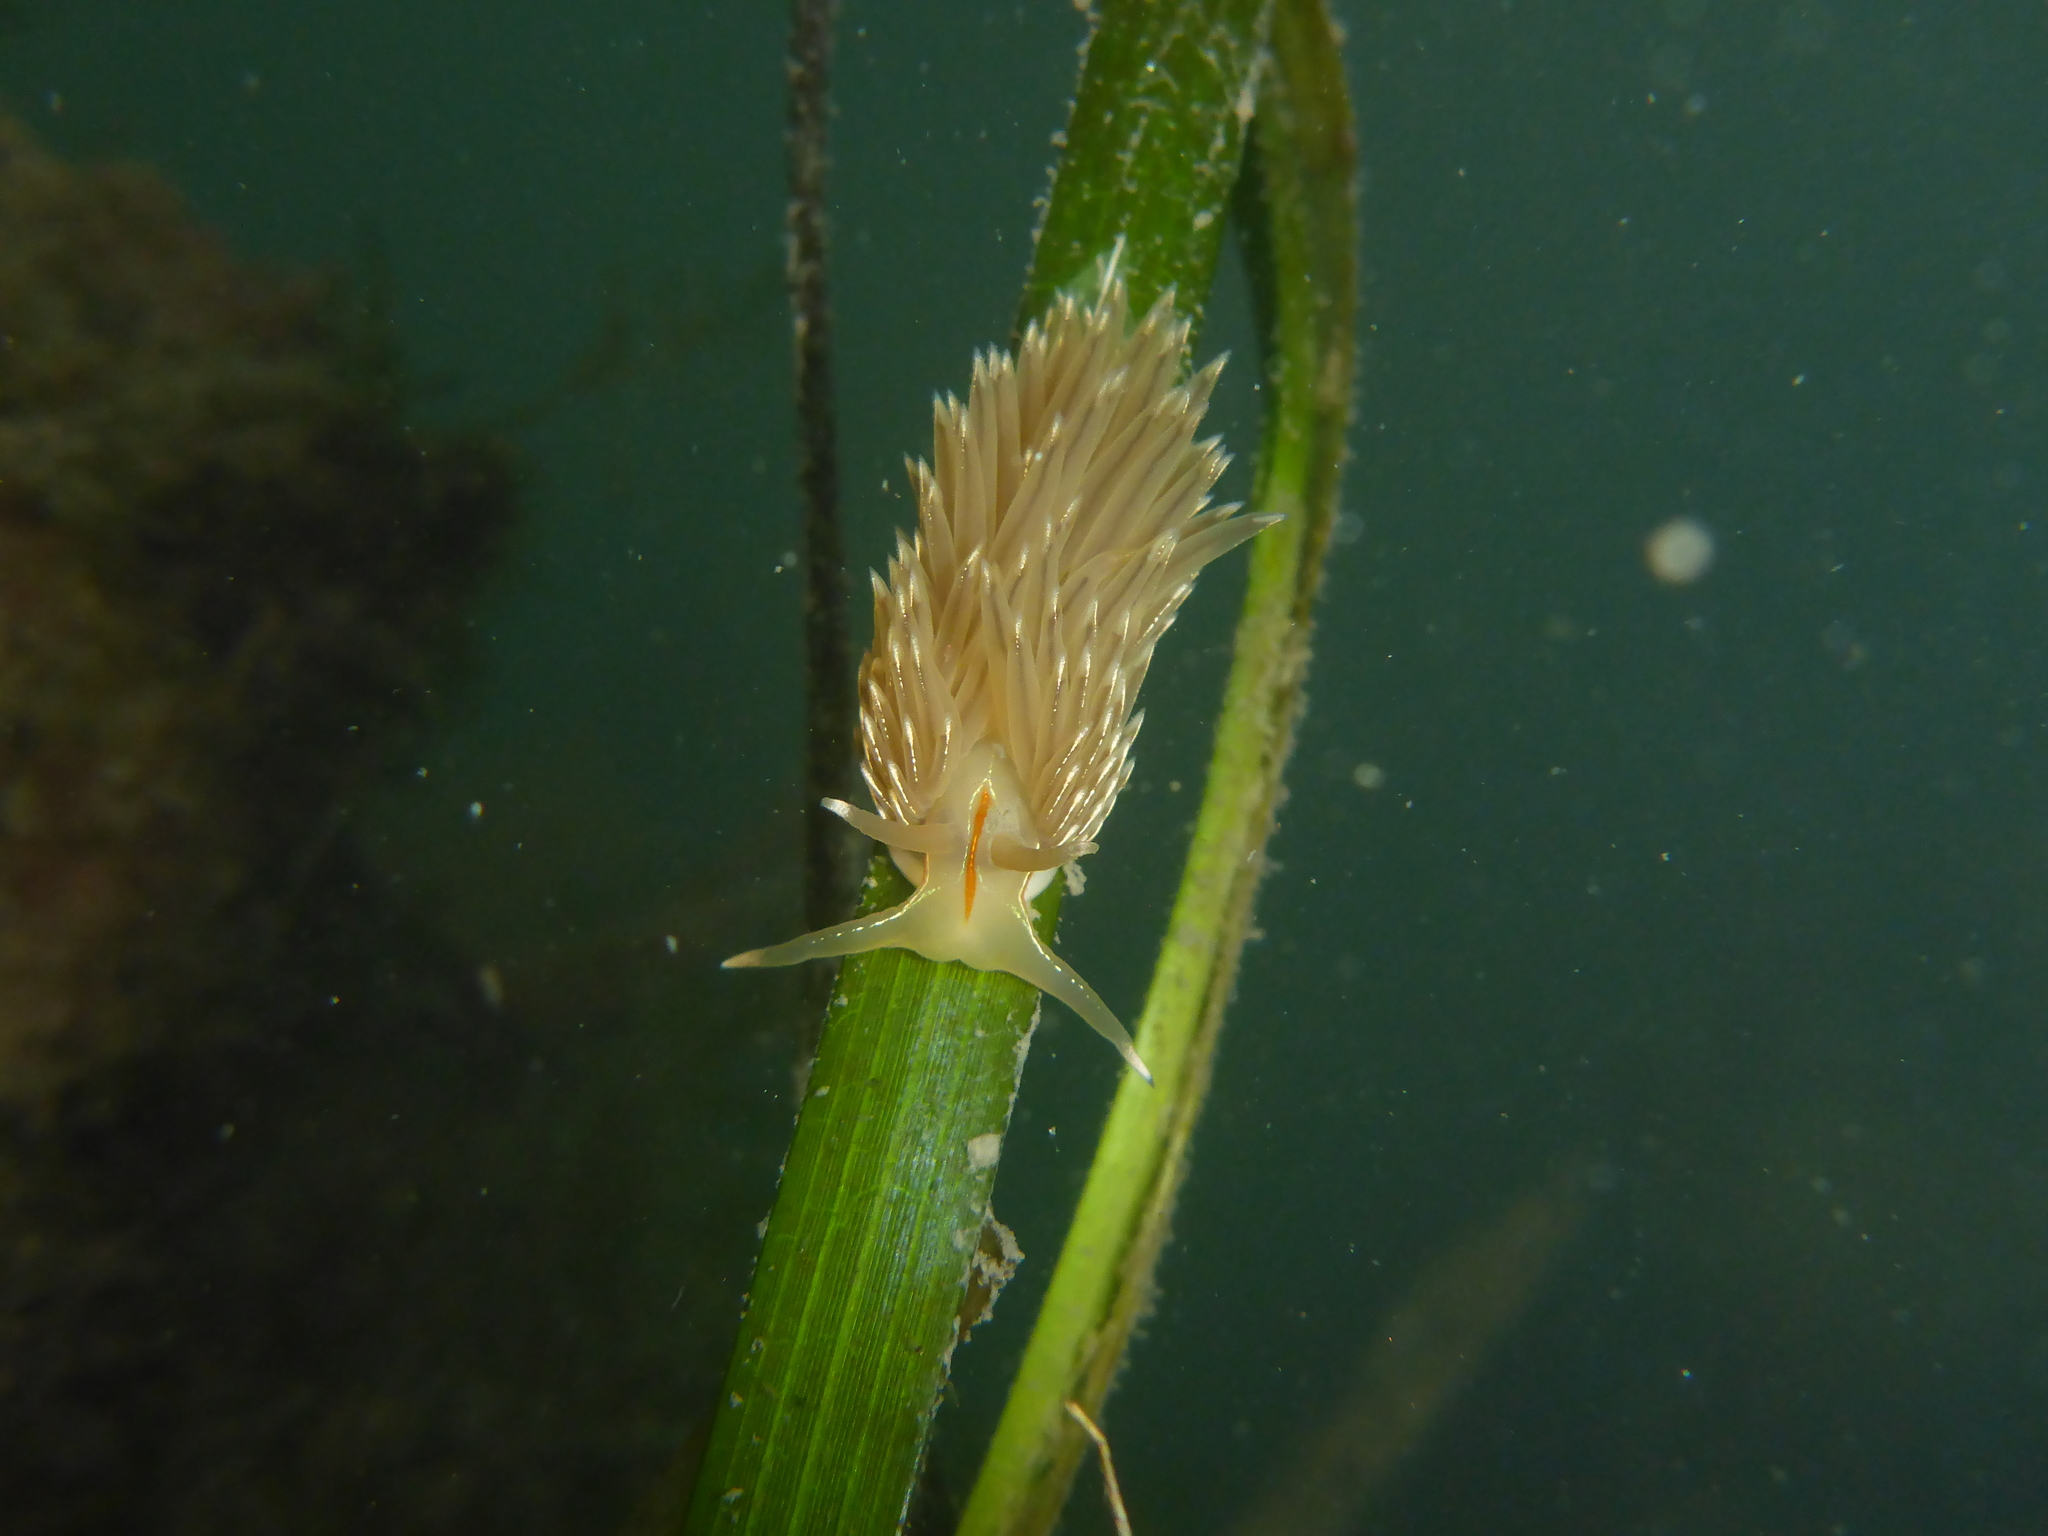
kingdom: Animalia
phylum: Mollusca
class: Gastropoda
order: Nudibranchia
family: Myrrhinidae
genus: Hermissenda
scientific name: Hermissenda crassicornis
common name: Hermissenda
